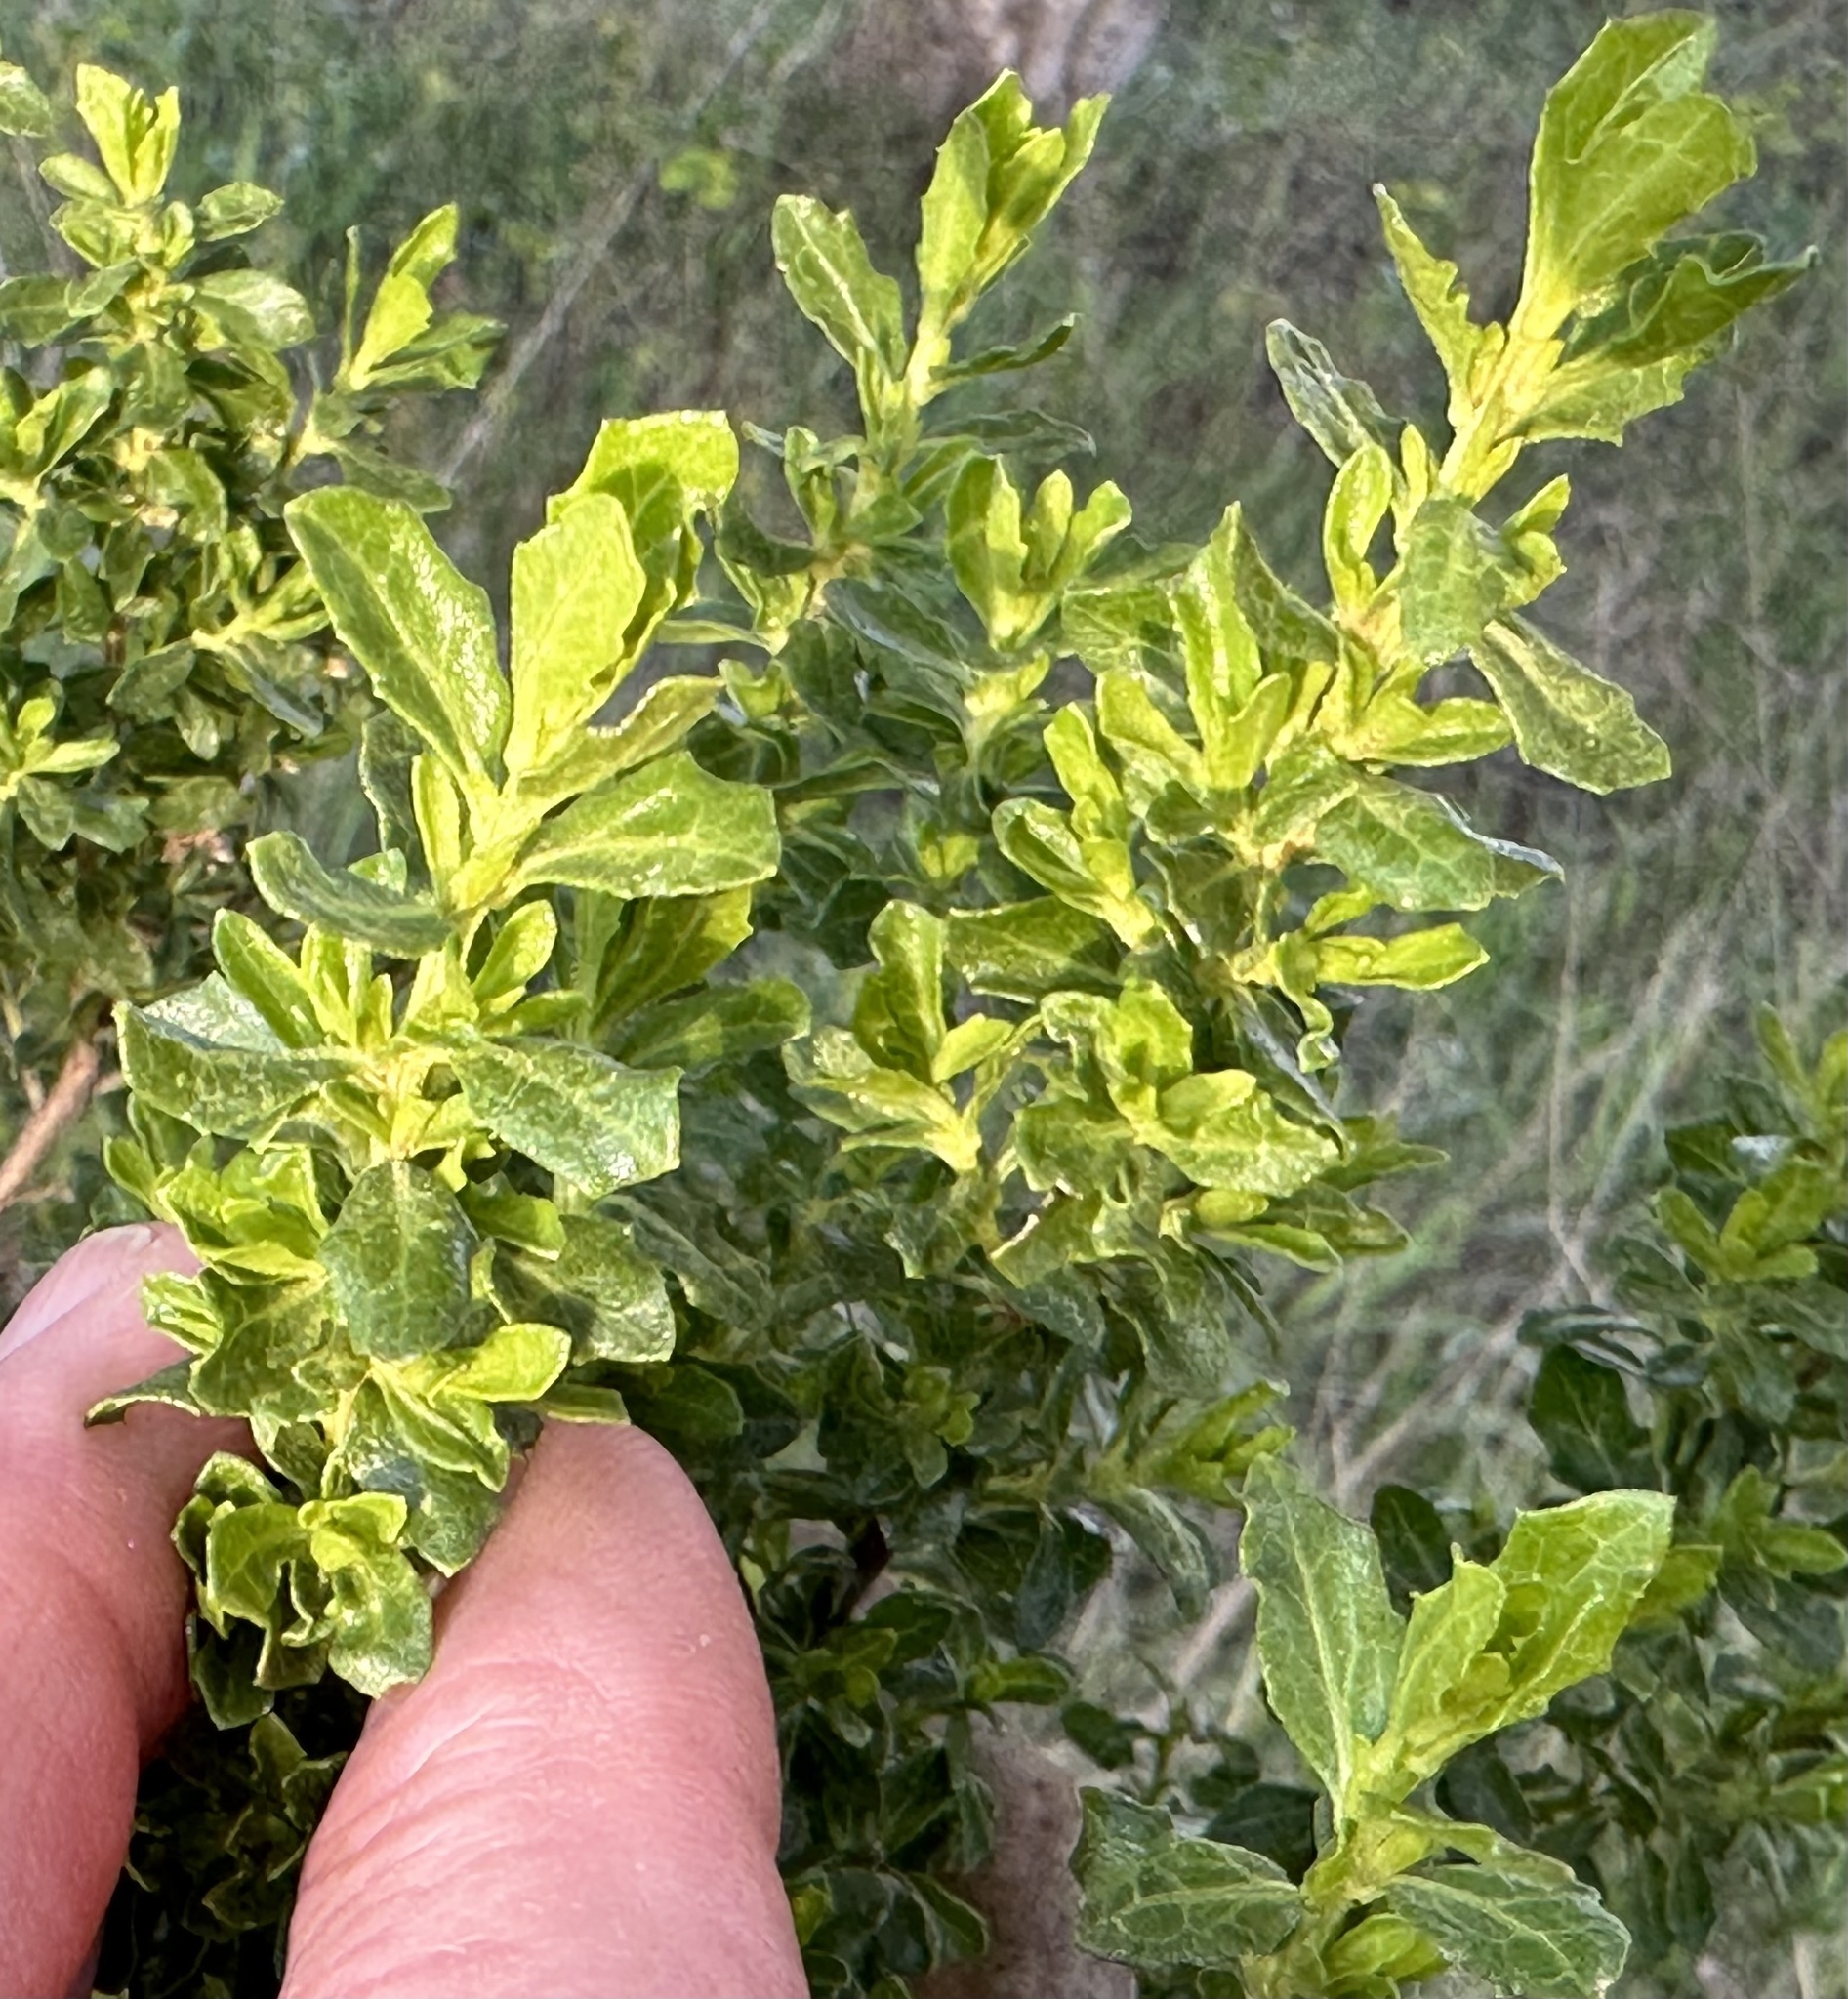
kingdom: Plantae
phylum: Tracheophyta
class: Magnoliopsida
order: Asterales
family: Asteraceae
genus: Baccharis
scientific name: Baccharis pilularis
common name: Coyotebrush
